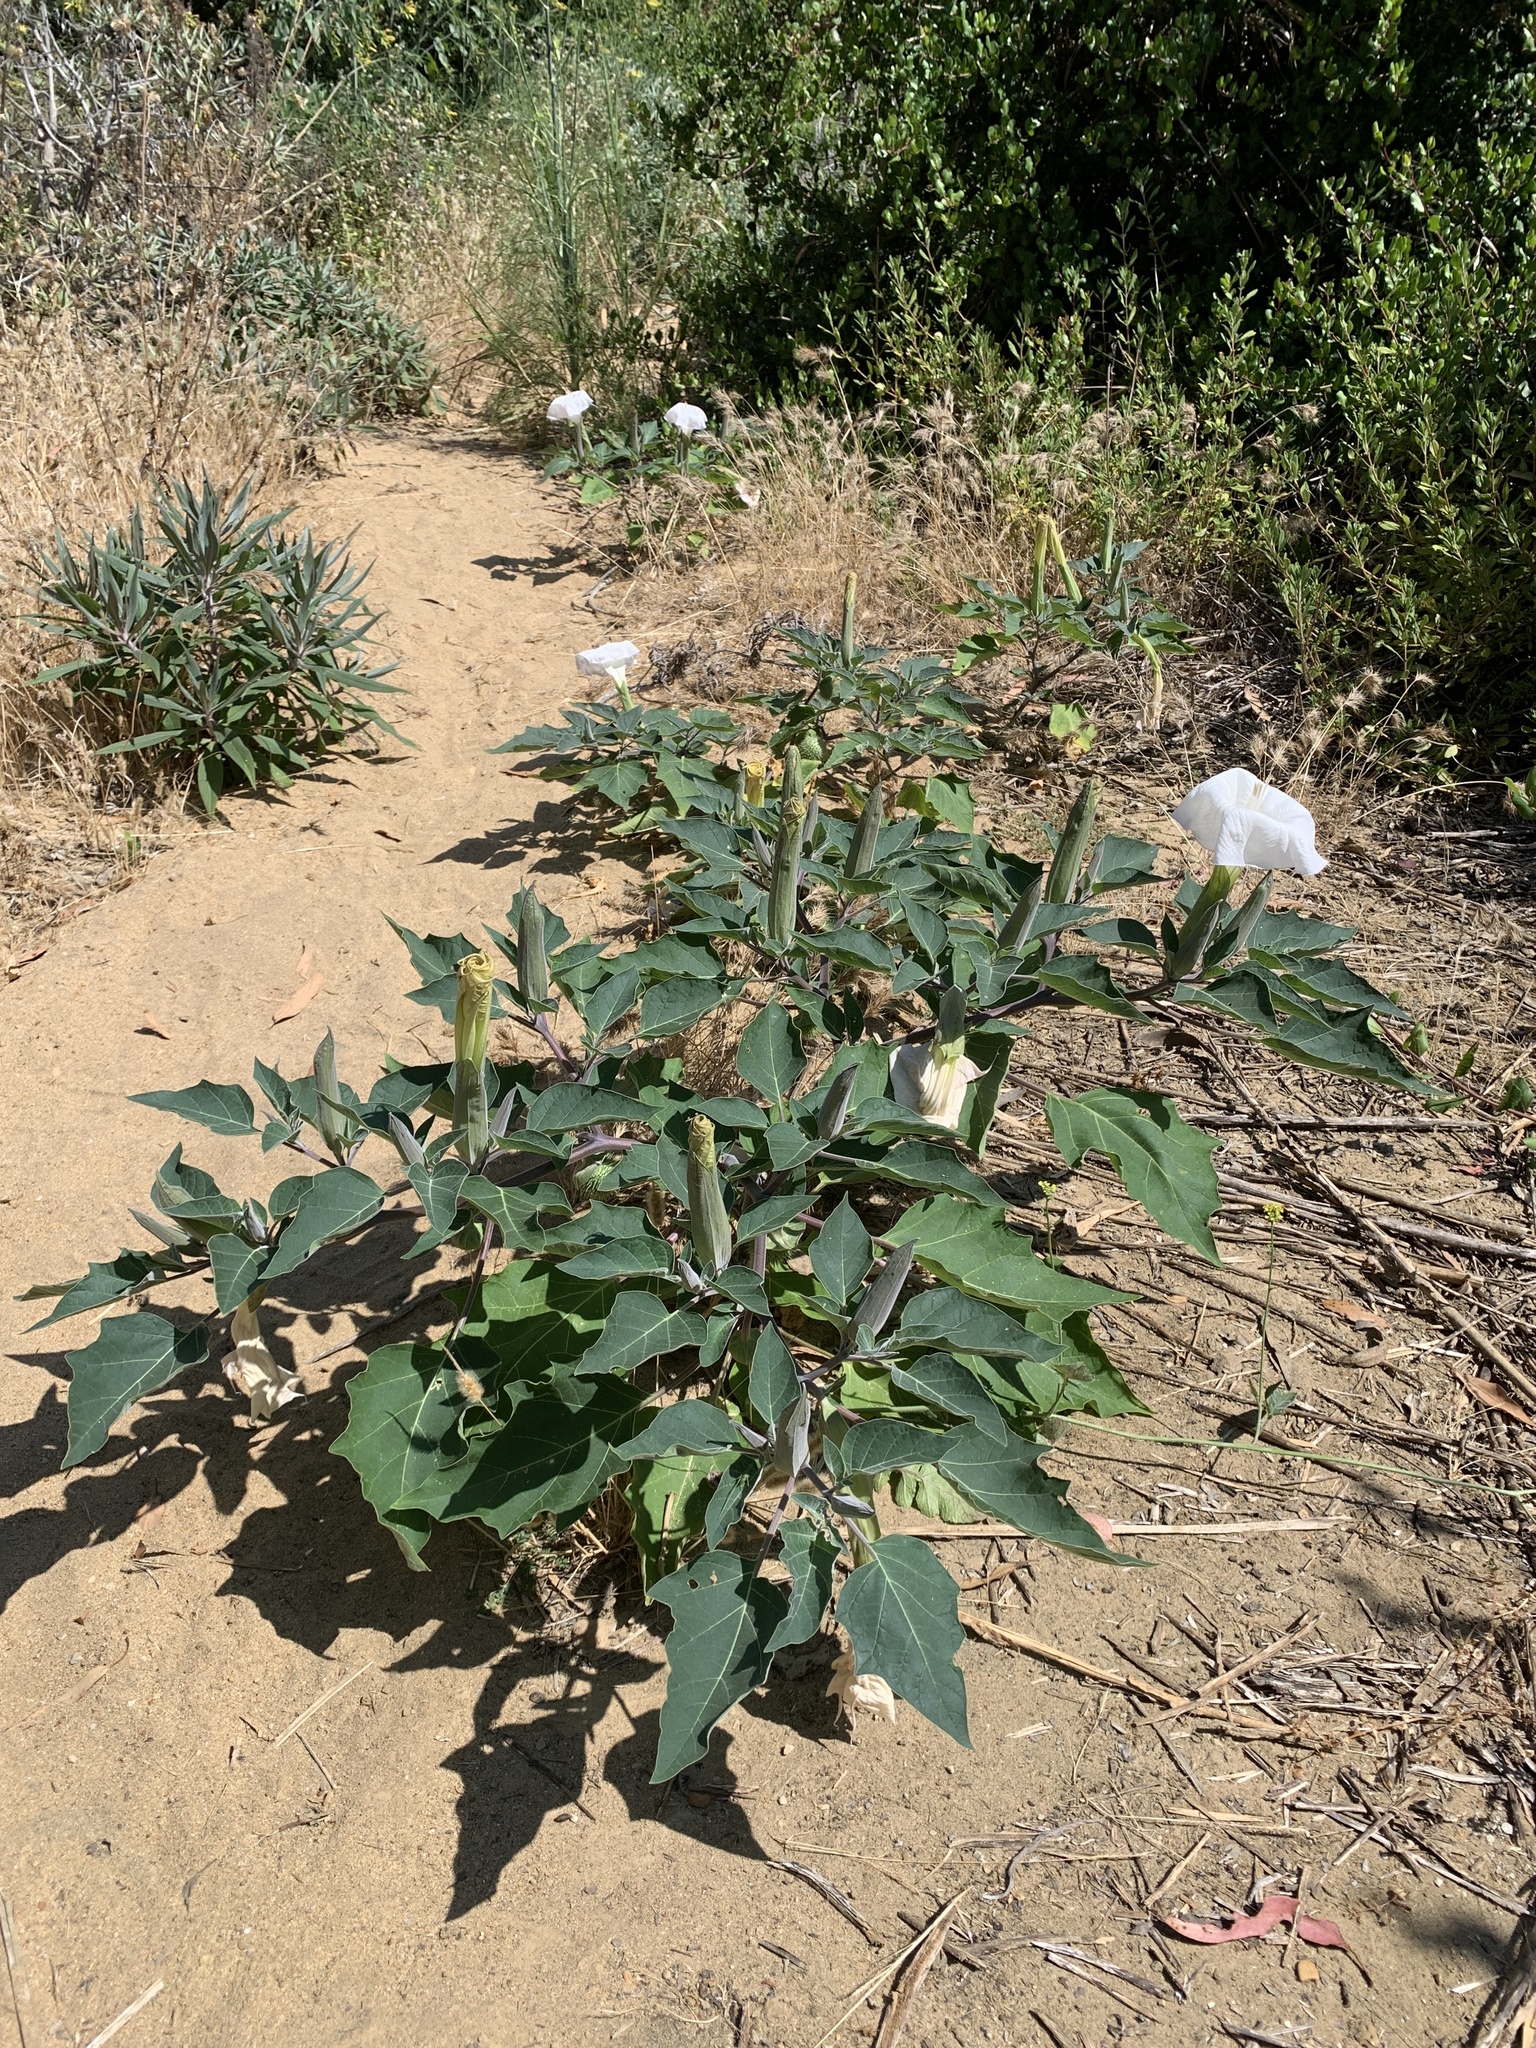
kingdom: Plantae
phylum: Tracheophyta
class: Magnoliopsida
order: Solanales
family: Solanaceae
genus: Datura
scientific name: Datura wrightii
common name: Sacred thorn-apple
